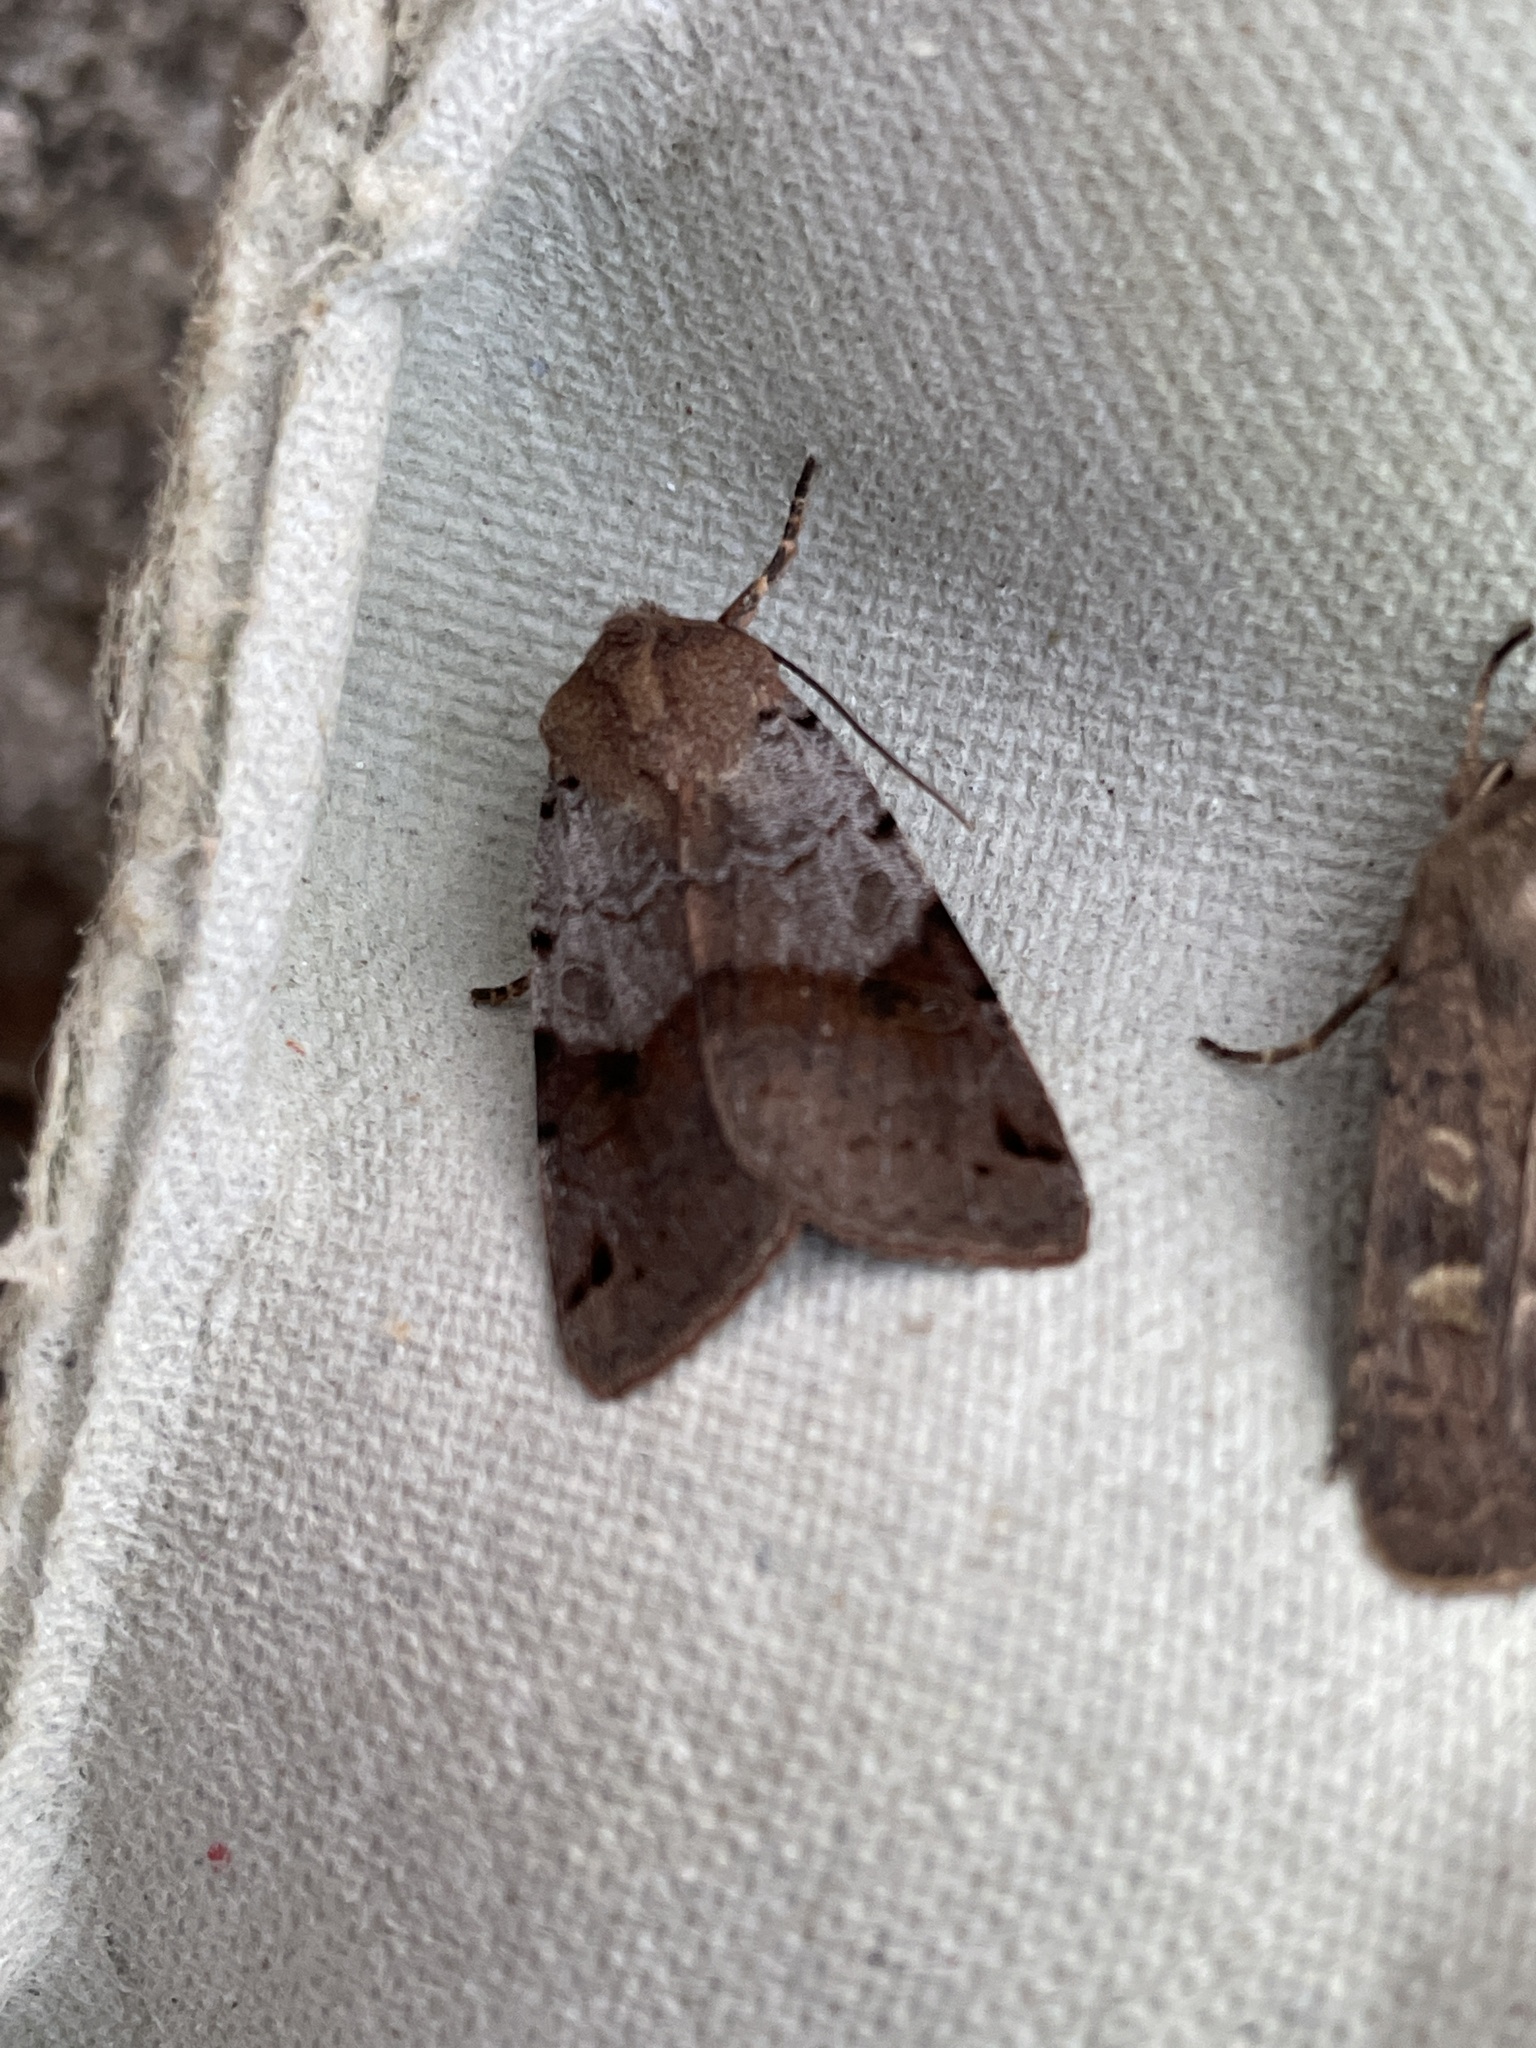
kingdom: Animalia
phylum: Arthropoda
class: Insecta
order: Lepidoptera
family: Noctuidae
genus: Agrochola
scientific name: Agrochola litura
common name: Brown-spot pinion
